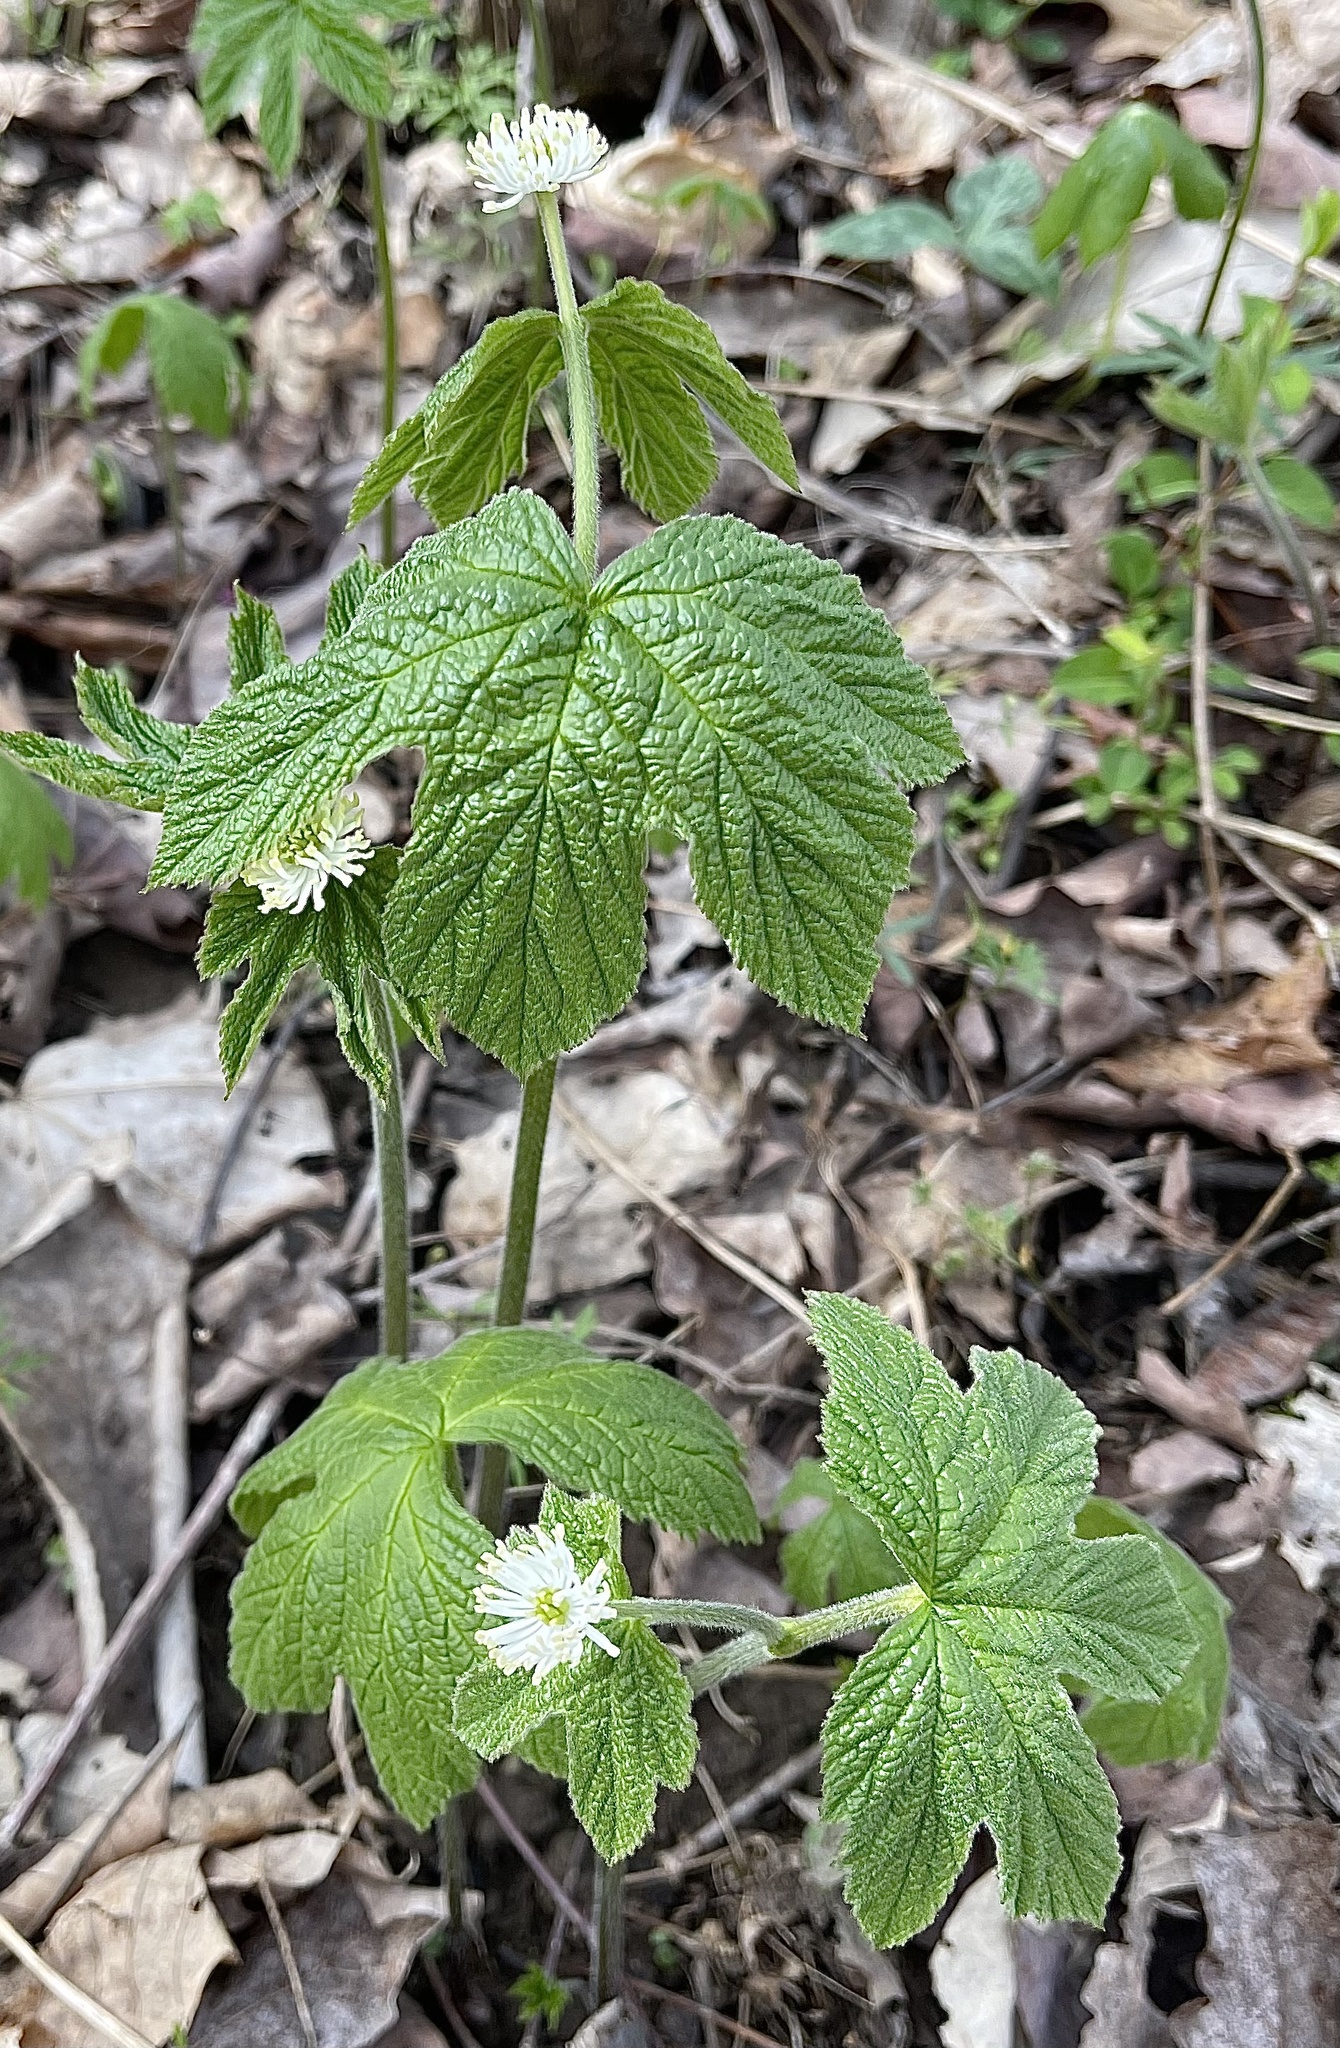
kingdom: Plantae
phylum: Tracheophyta
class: Magnoliopsida
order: Ranunculales
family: Ranunculaceae
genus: Hydrastis
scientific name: Hydrastis canadensis
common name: Goldenseal
